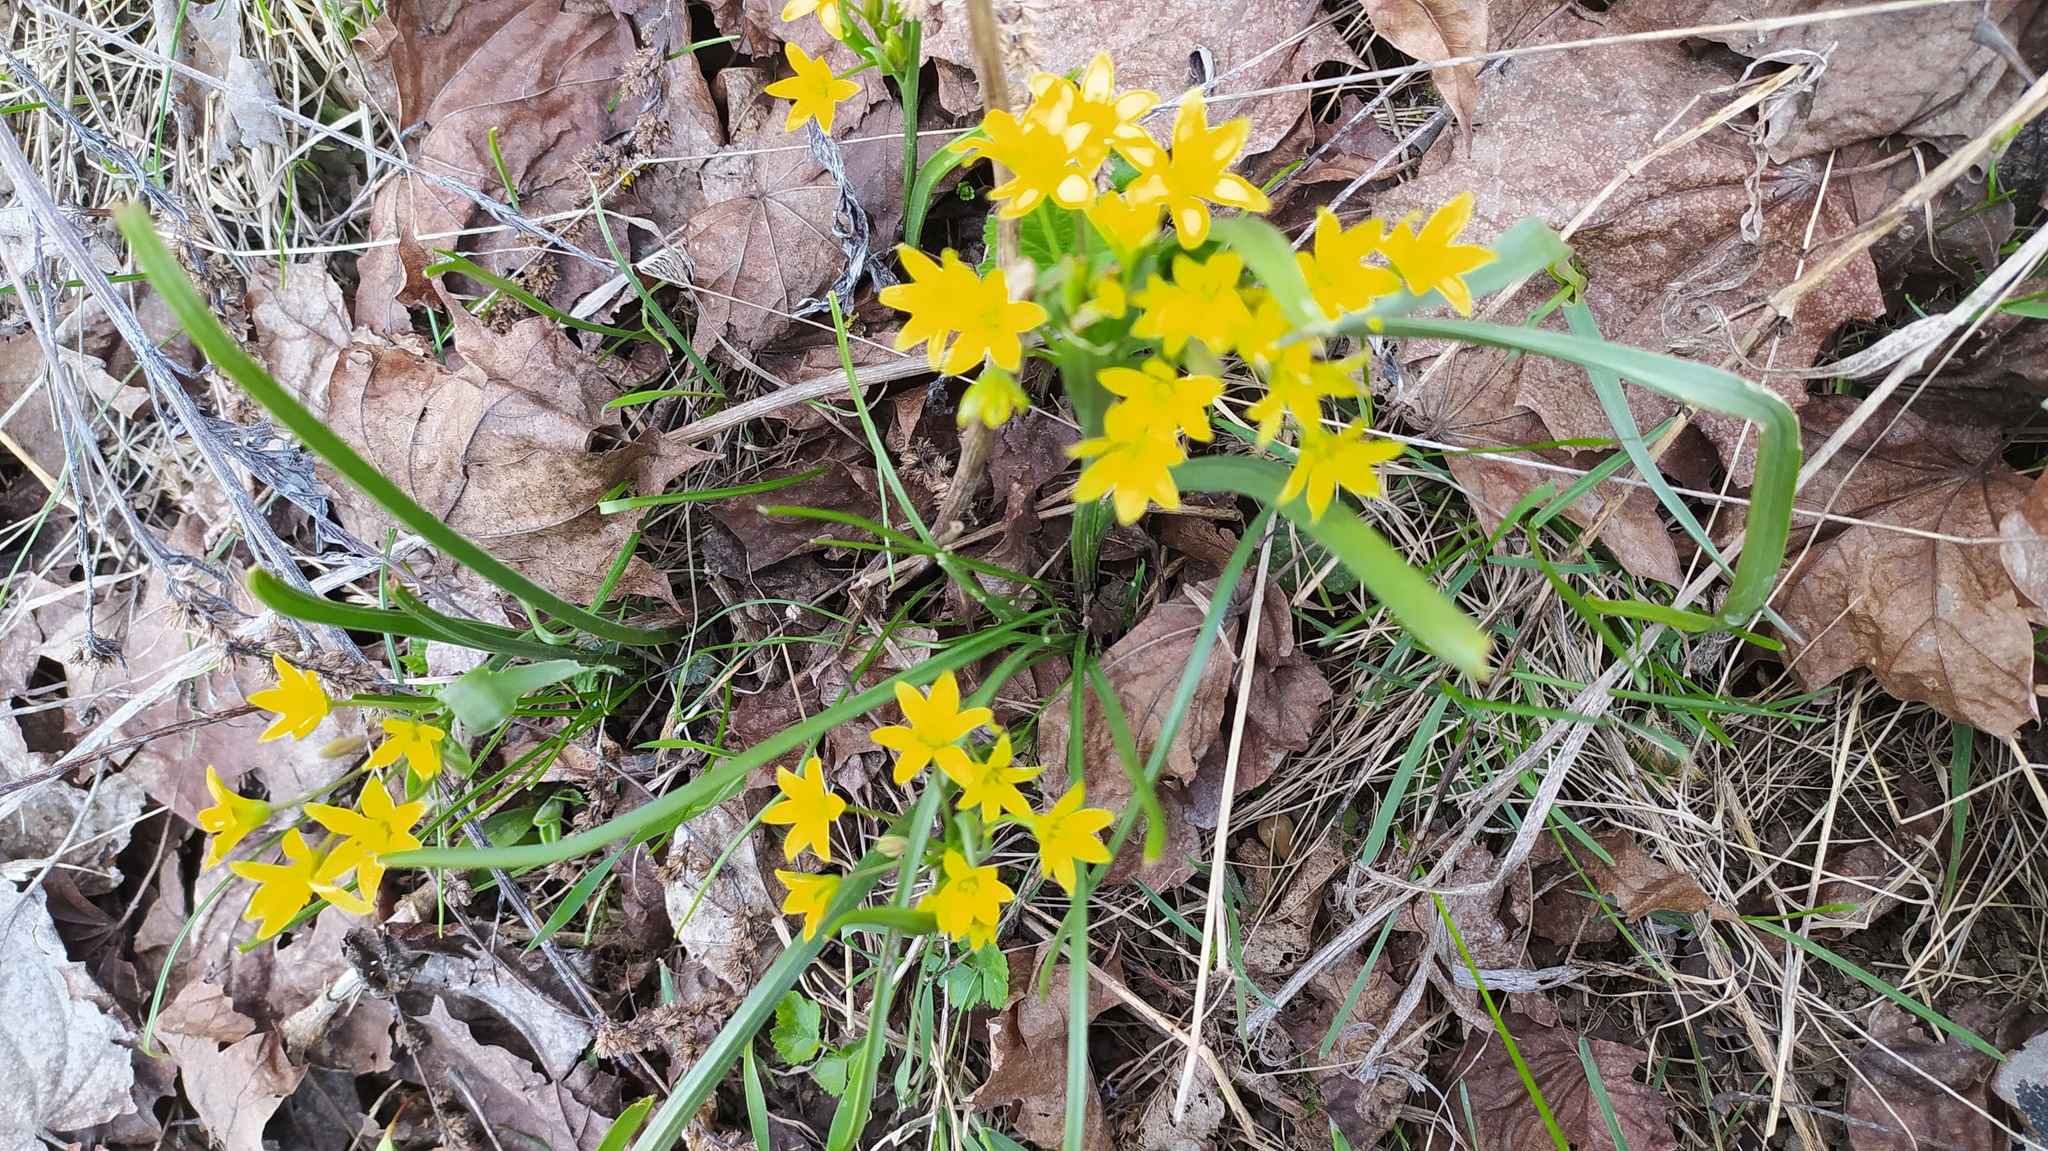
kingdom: Plantae
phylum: Tracheophyta
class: Liliopsida
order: Liliales
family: Liliaceae
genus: Gagea
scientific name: Gagea fragifera
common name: Lily
